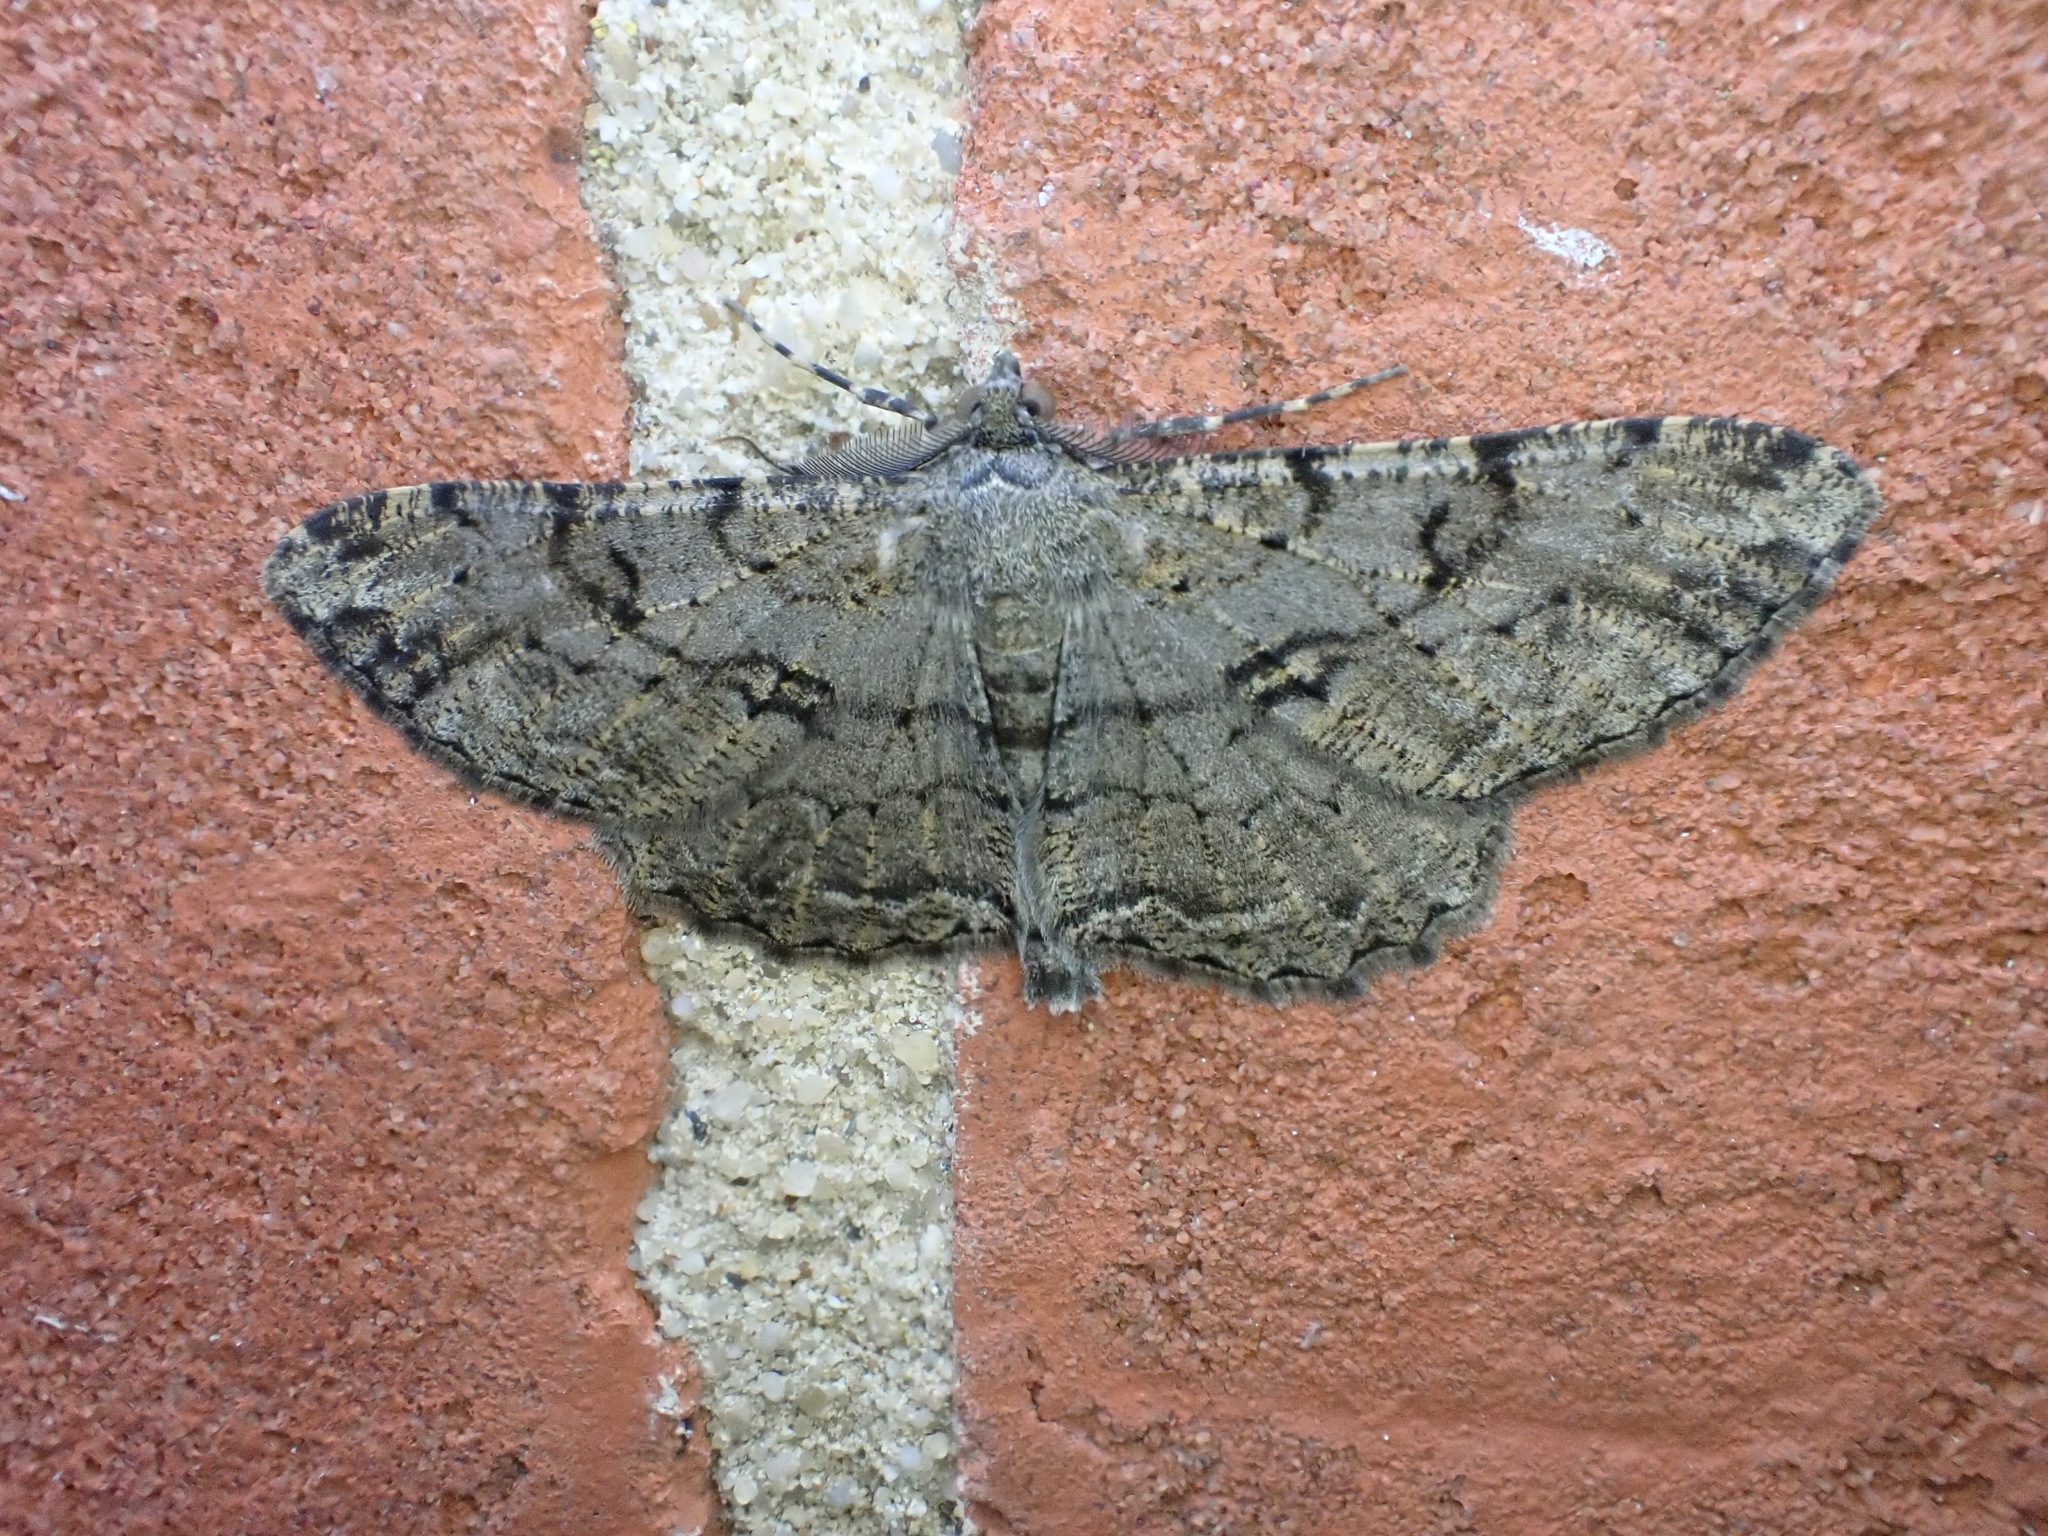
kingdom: Animalia
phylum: Arthropoda
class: Insecta
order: Lepidoptera
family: Geometridae
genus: Peribatodes
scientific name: Peribatodes rhomboidaria
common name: Willow beauty
